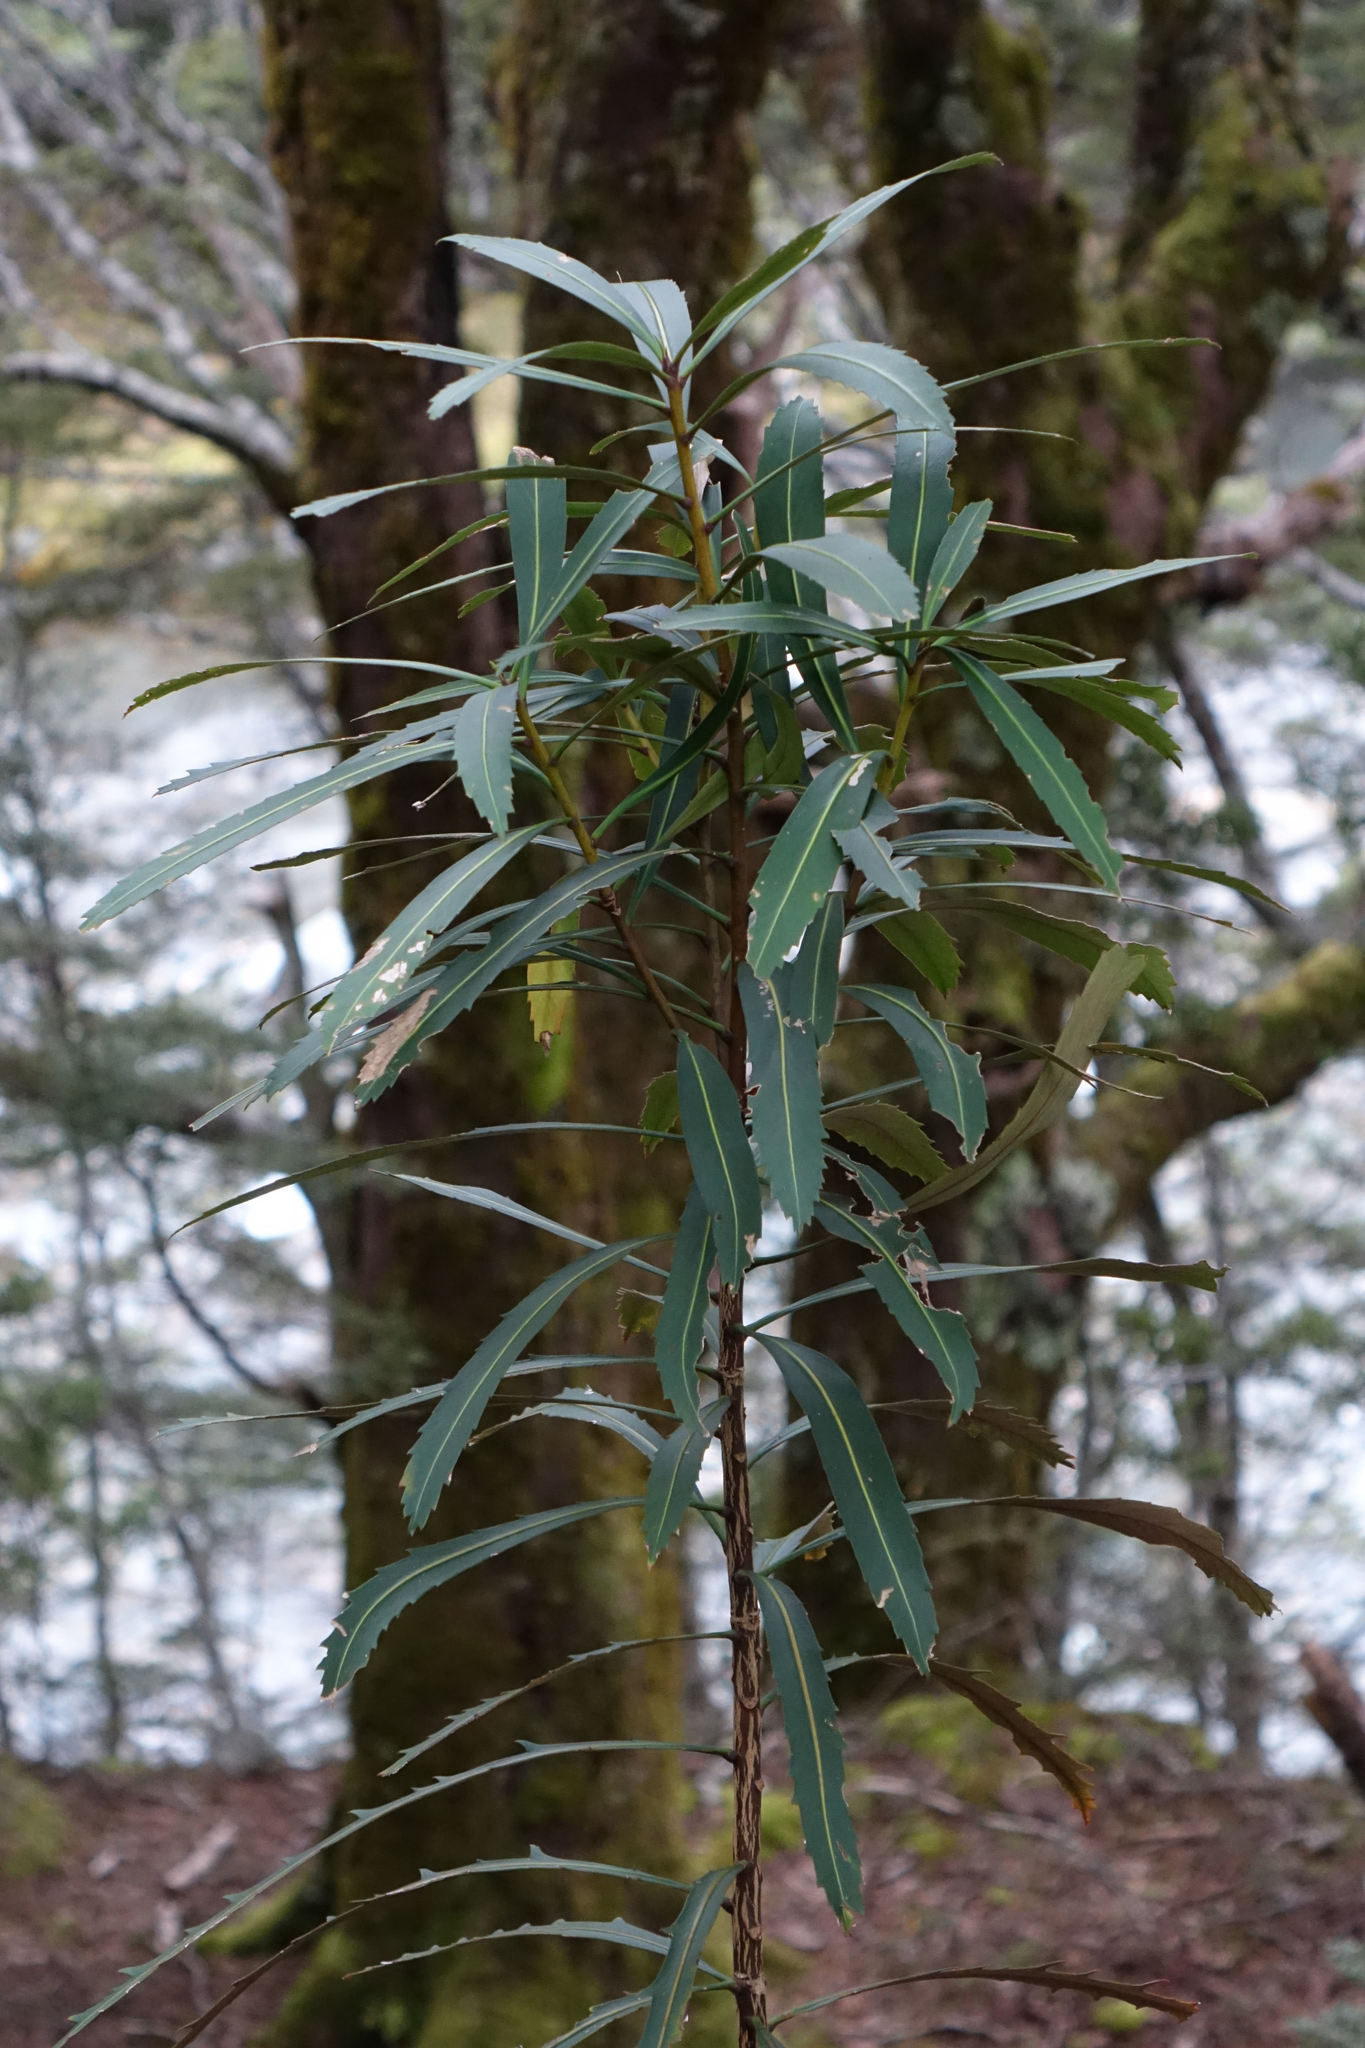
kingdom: Plantae
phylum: Tracheophyta
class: Magnoliopsida
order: Apiales
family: Araliaceae
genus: Pseudopanax
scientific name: Pseudopanax crassifolius
